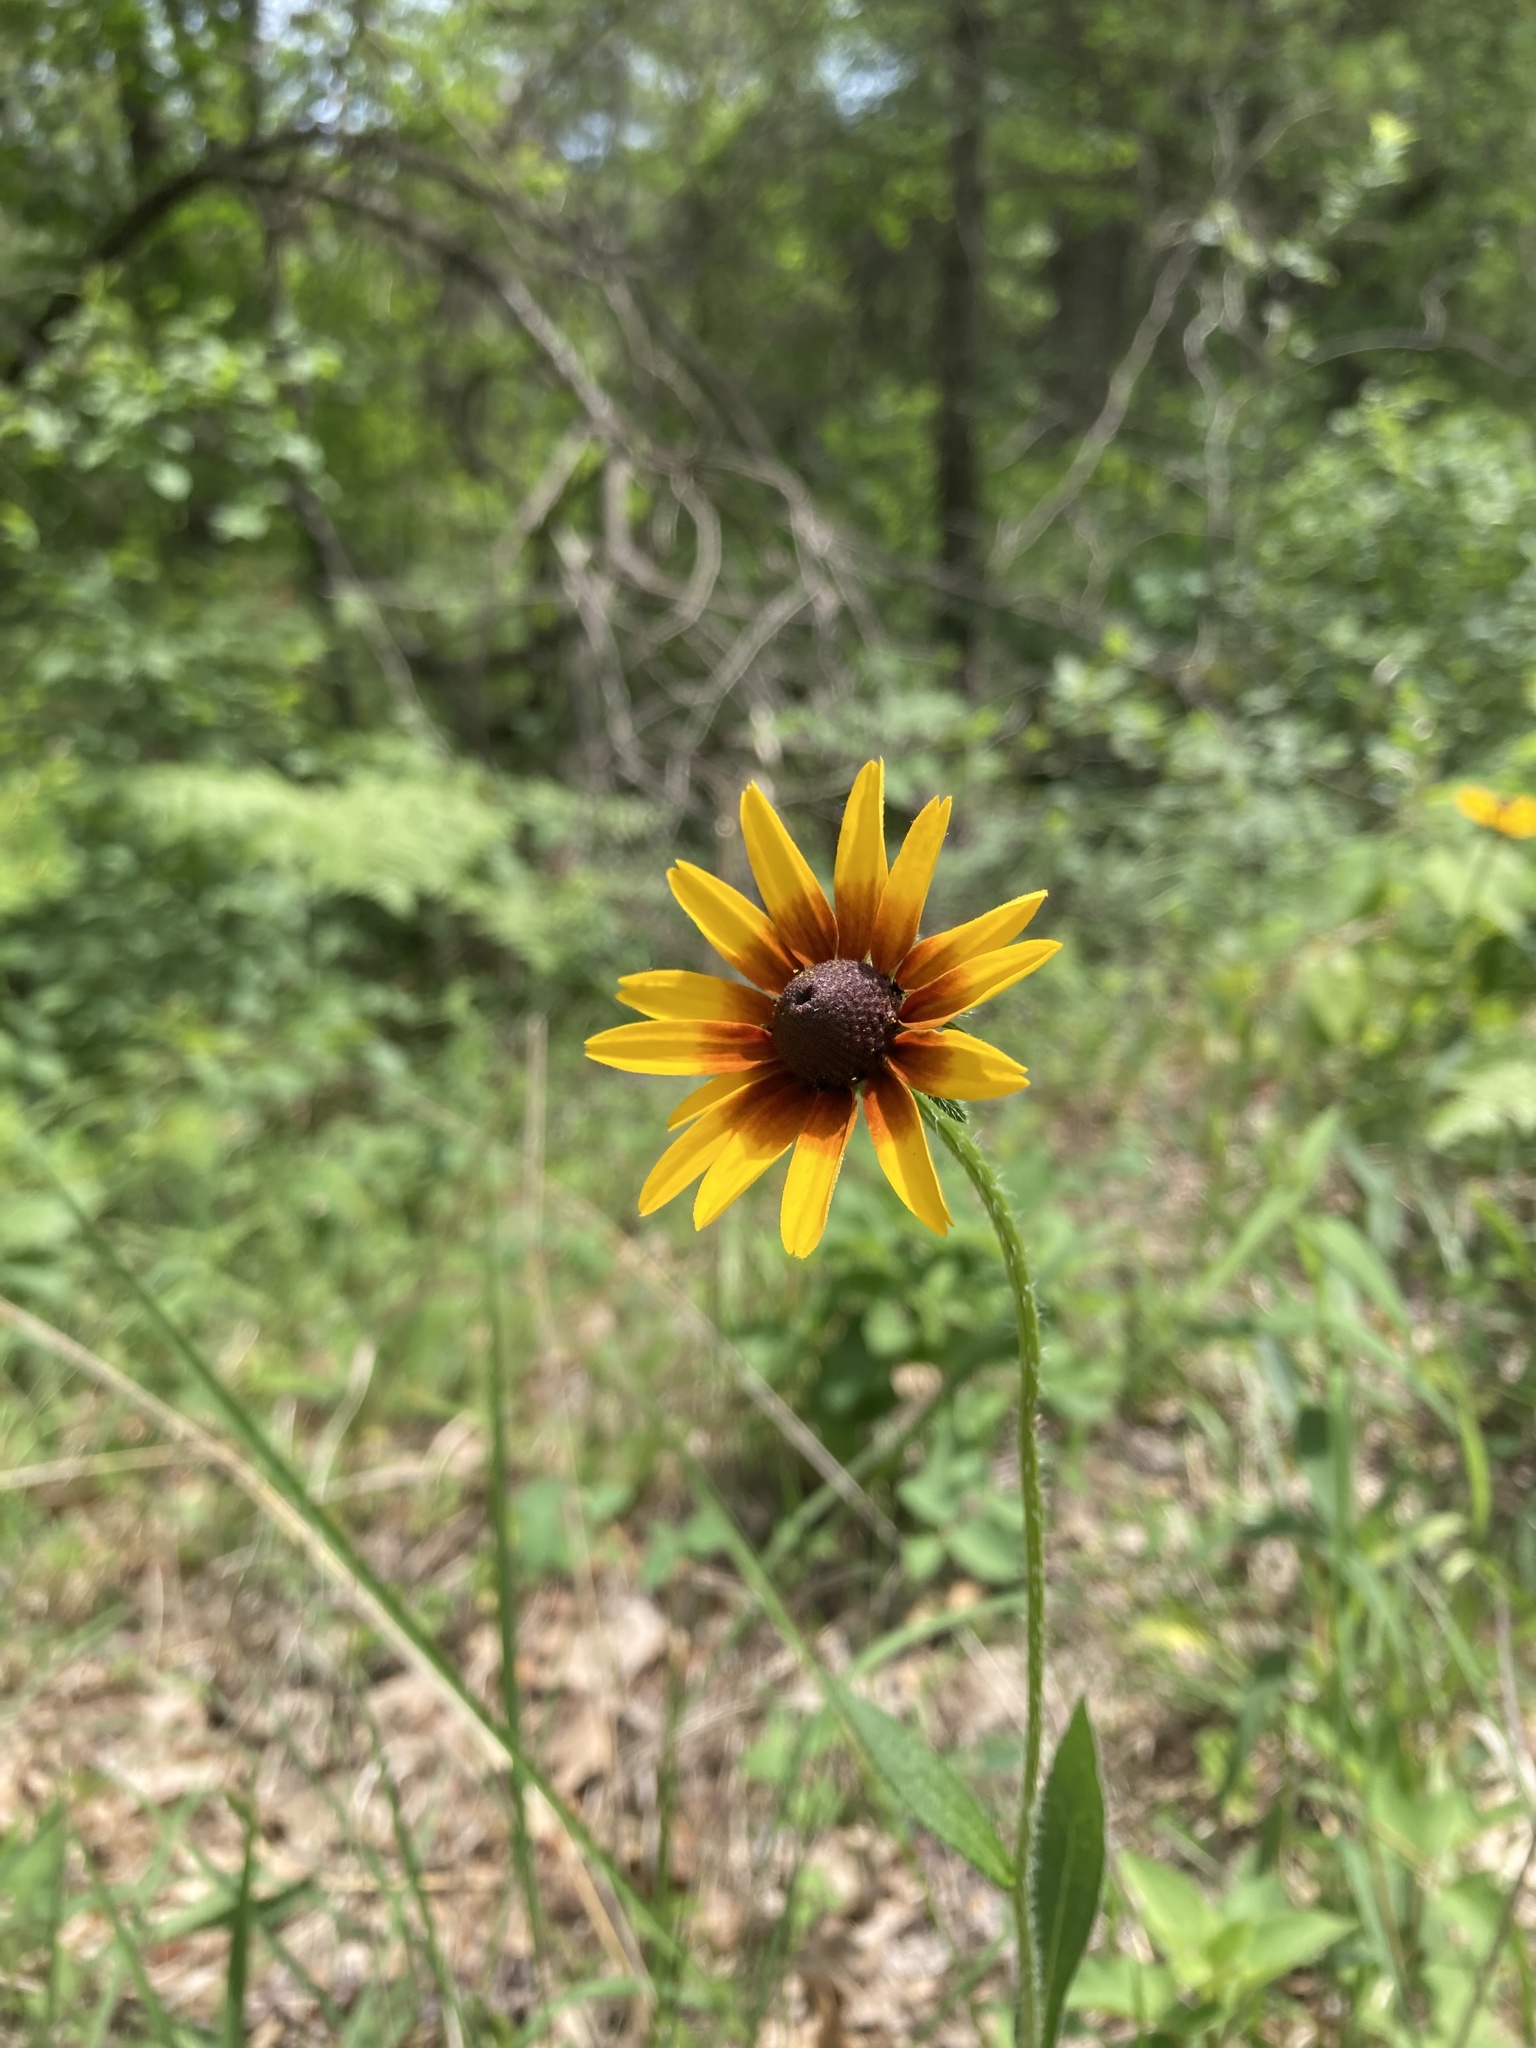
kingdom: Plantae
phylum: Tracheophyta
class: Magnoliopsida
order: Asterales
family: Asteraceae
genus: Rudbeckia
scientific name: Rudbeckia hirta
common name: Black-eyed-susan
